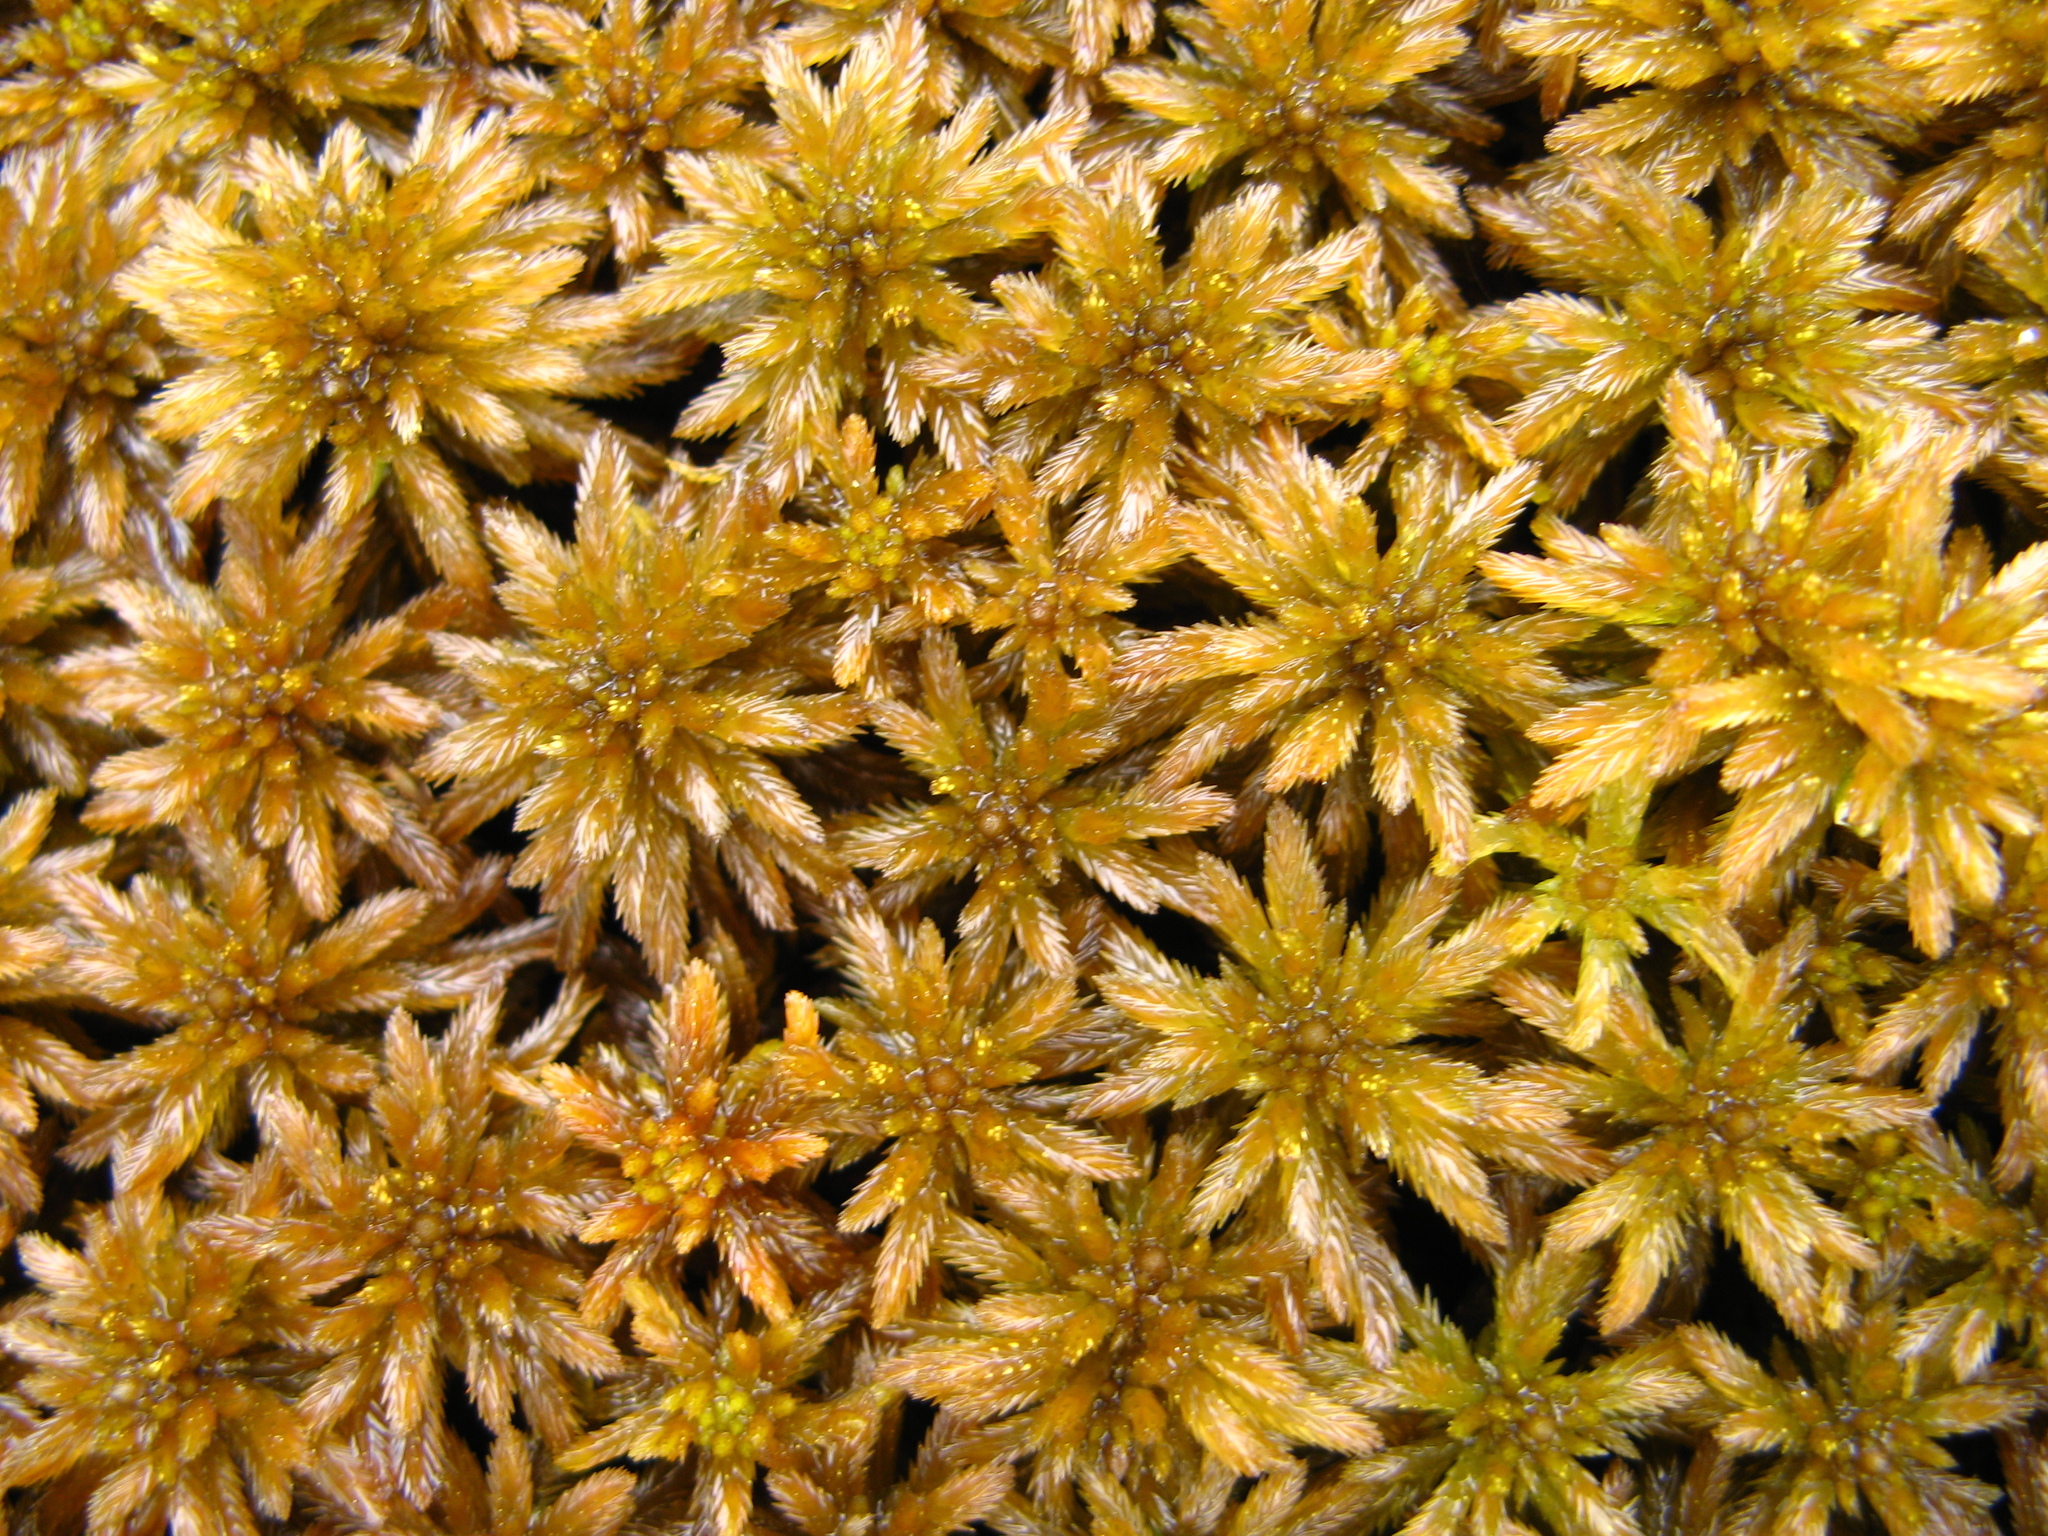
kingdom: Plantae
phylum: Bryophyta
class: Sphagnopsida
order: Sphagnales
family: Sphagnaceae
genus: Sphagnum
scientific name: Sphagnum lindbergii
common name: Lindberg's peat moss
